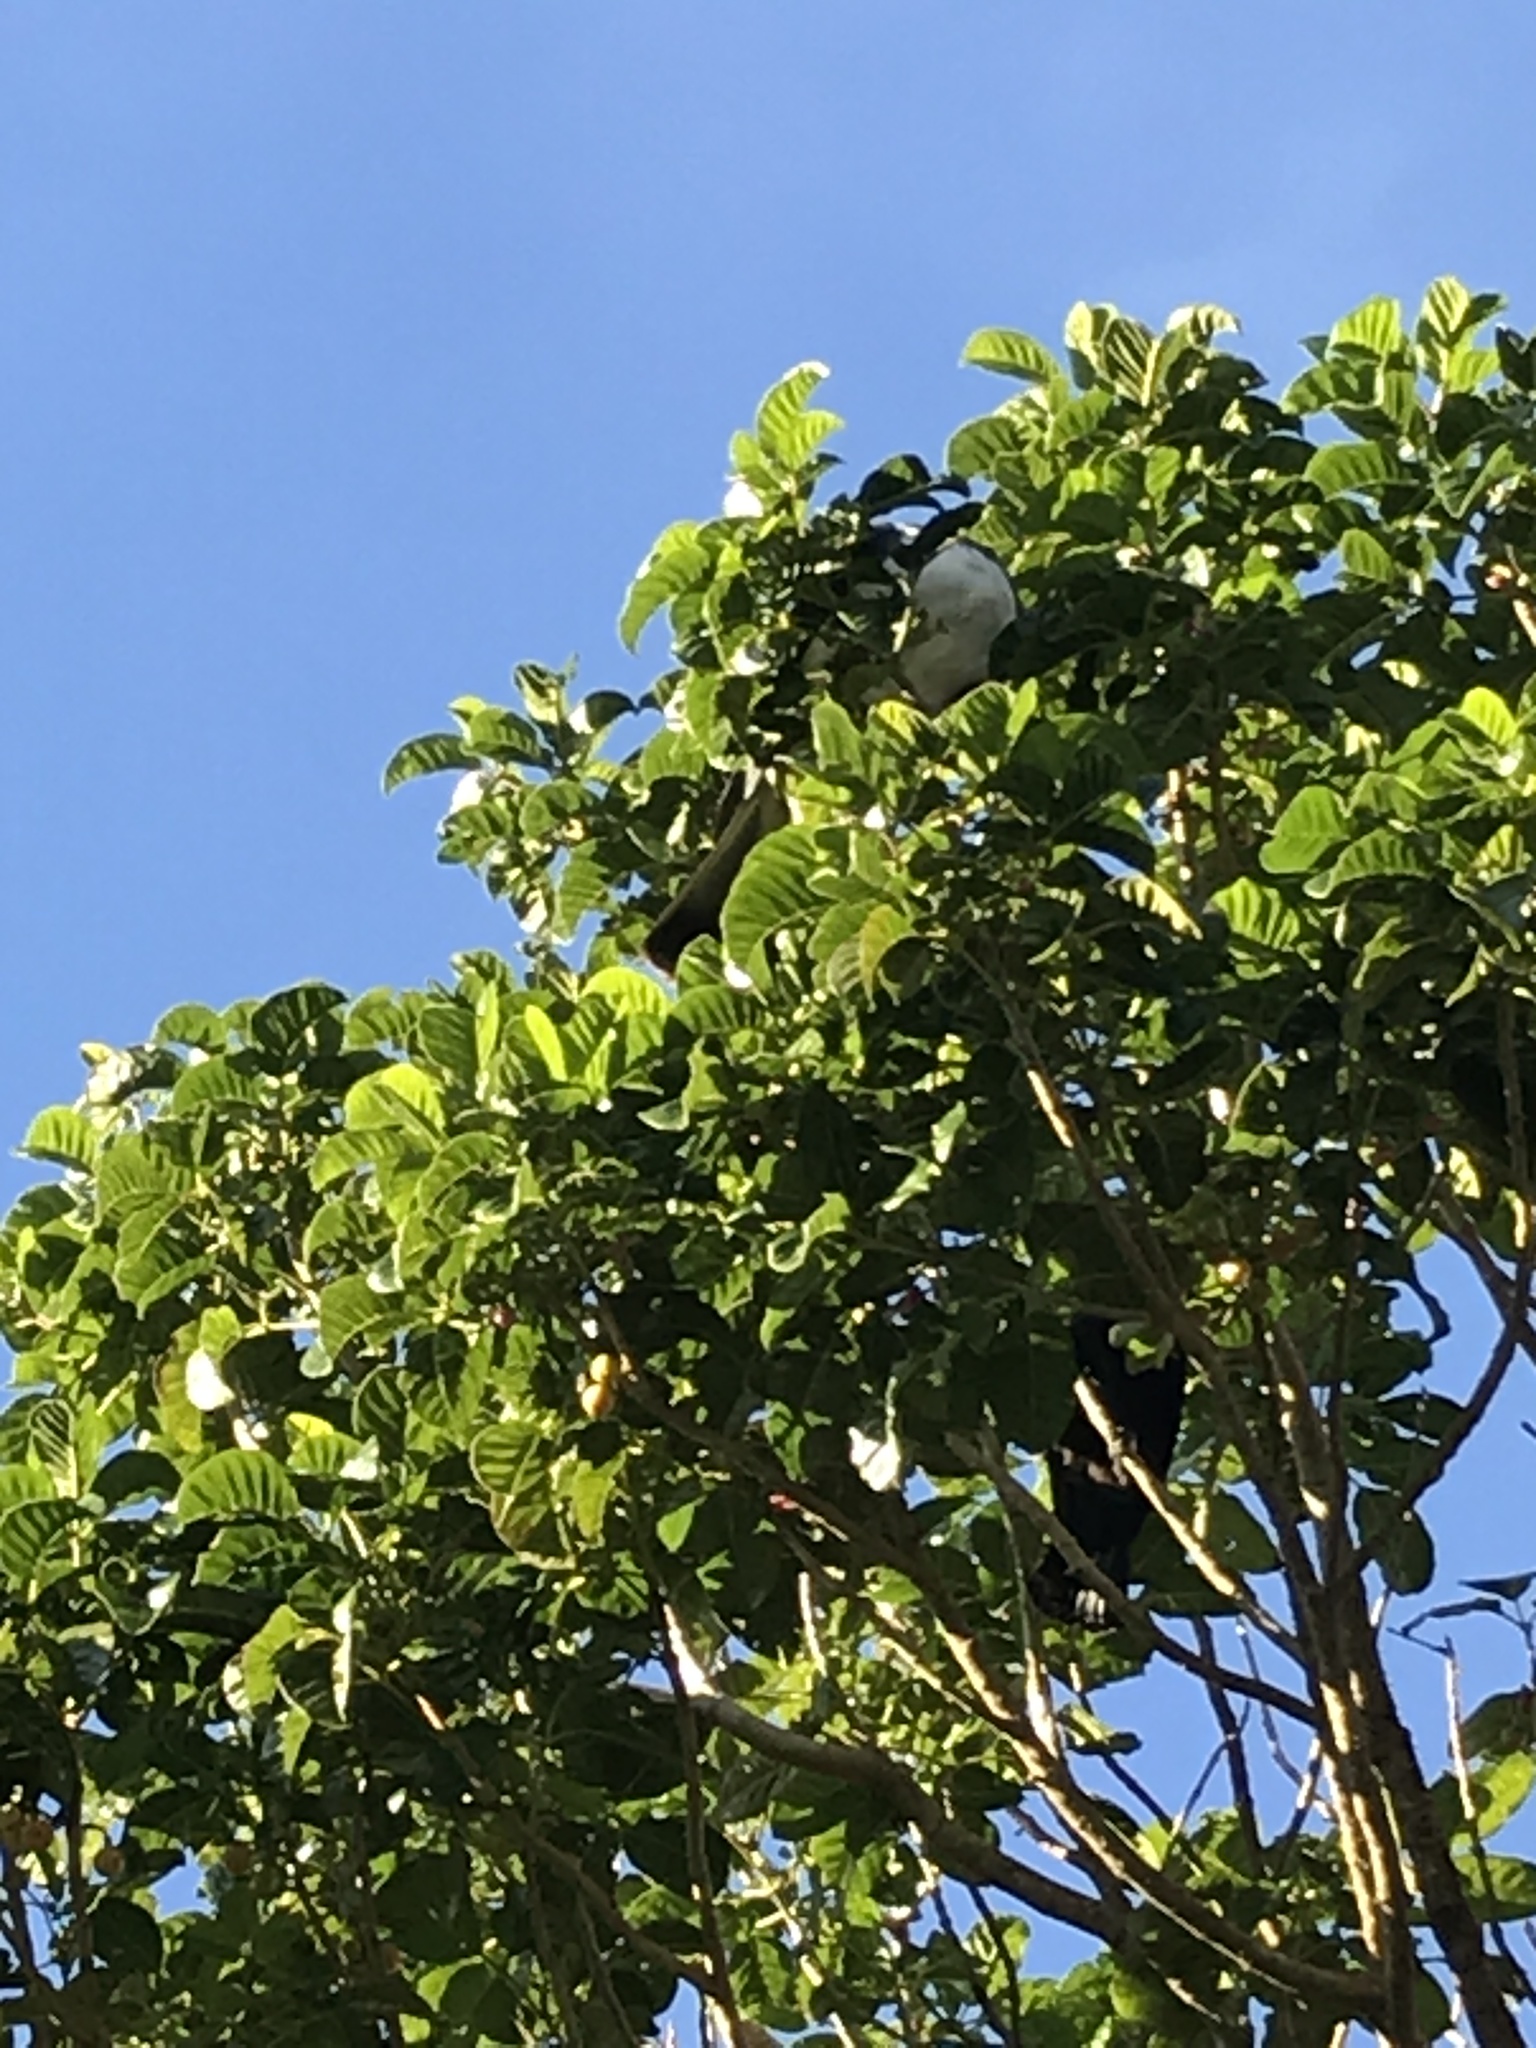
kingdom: Animalia
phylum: Chordata
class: Aves
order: Columbiformes
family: Columbidae
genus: Hemiphaga
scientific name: Hemiphaga novaeseelandiae
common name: New zealand pigeon
